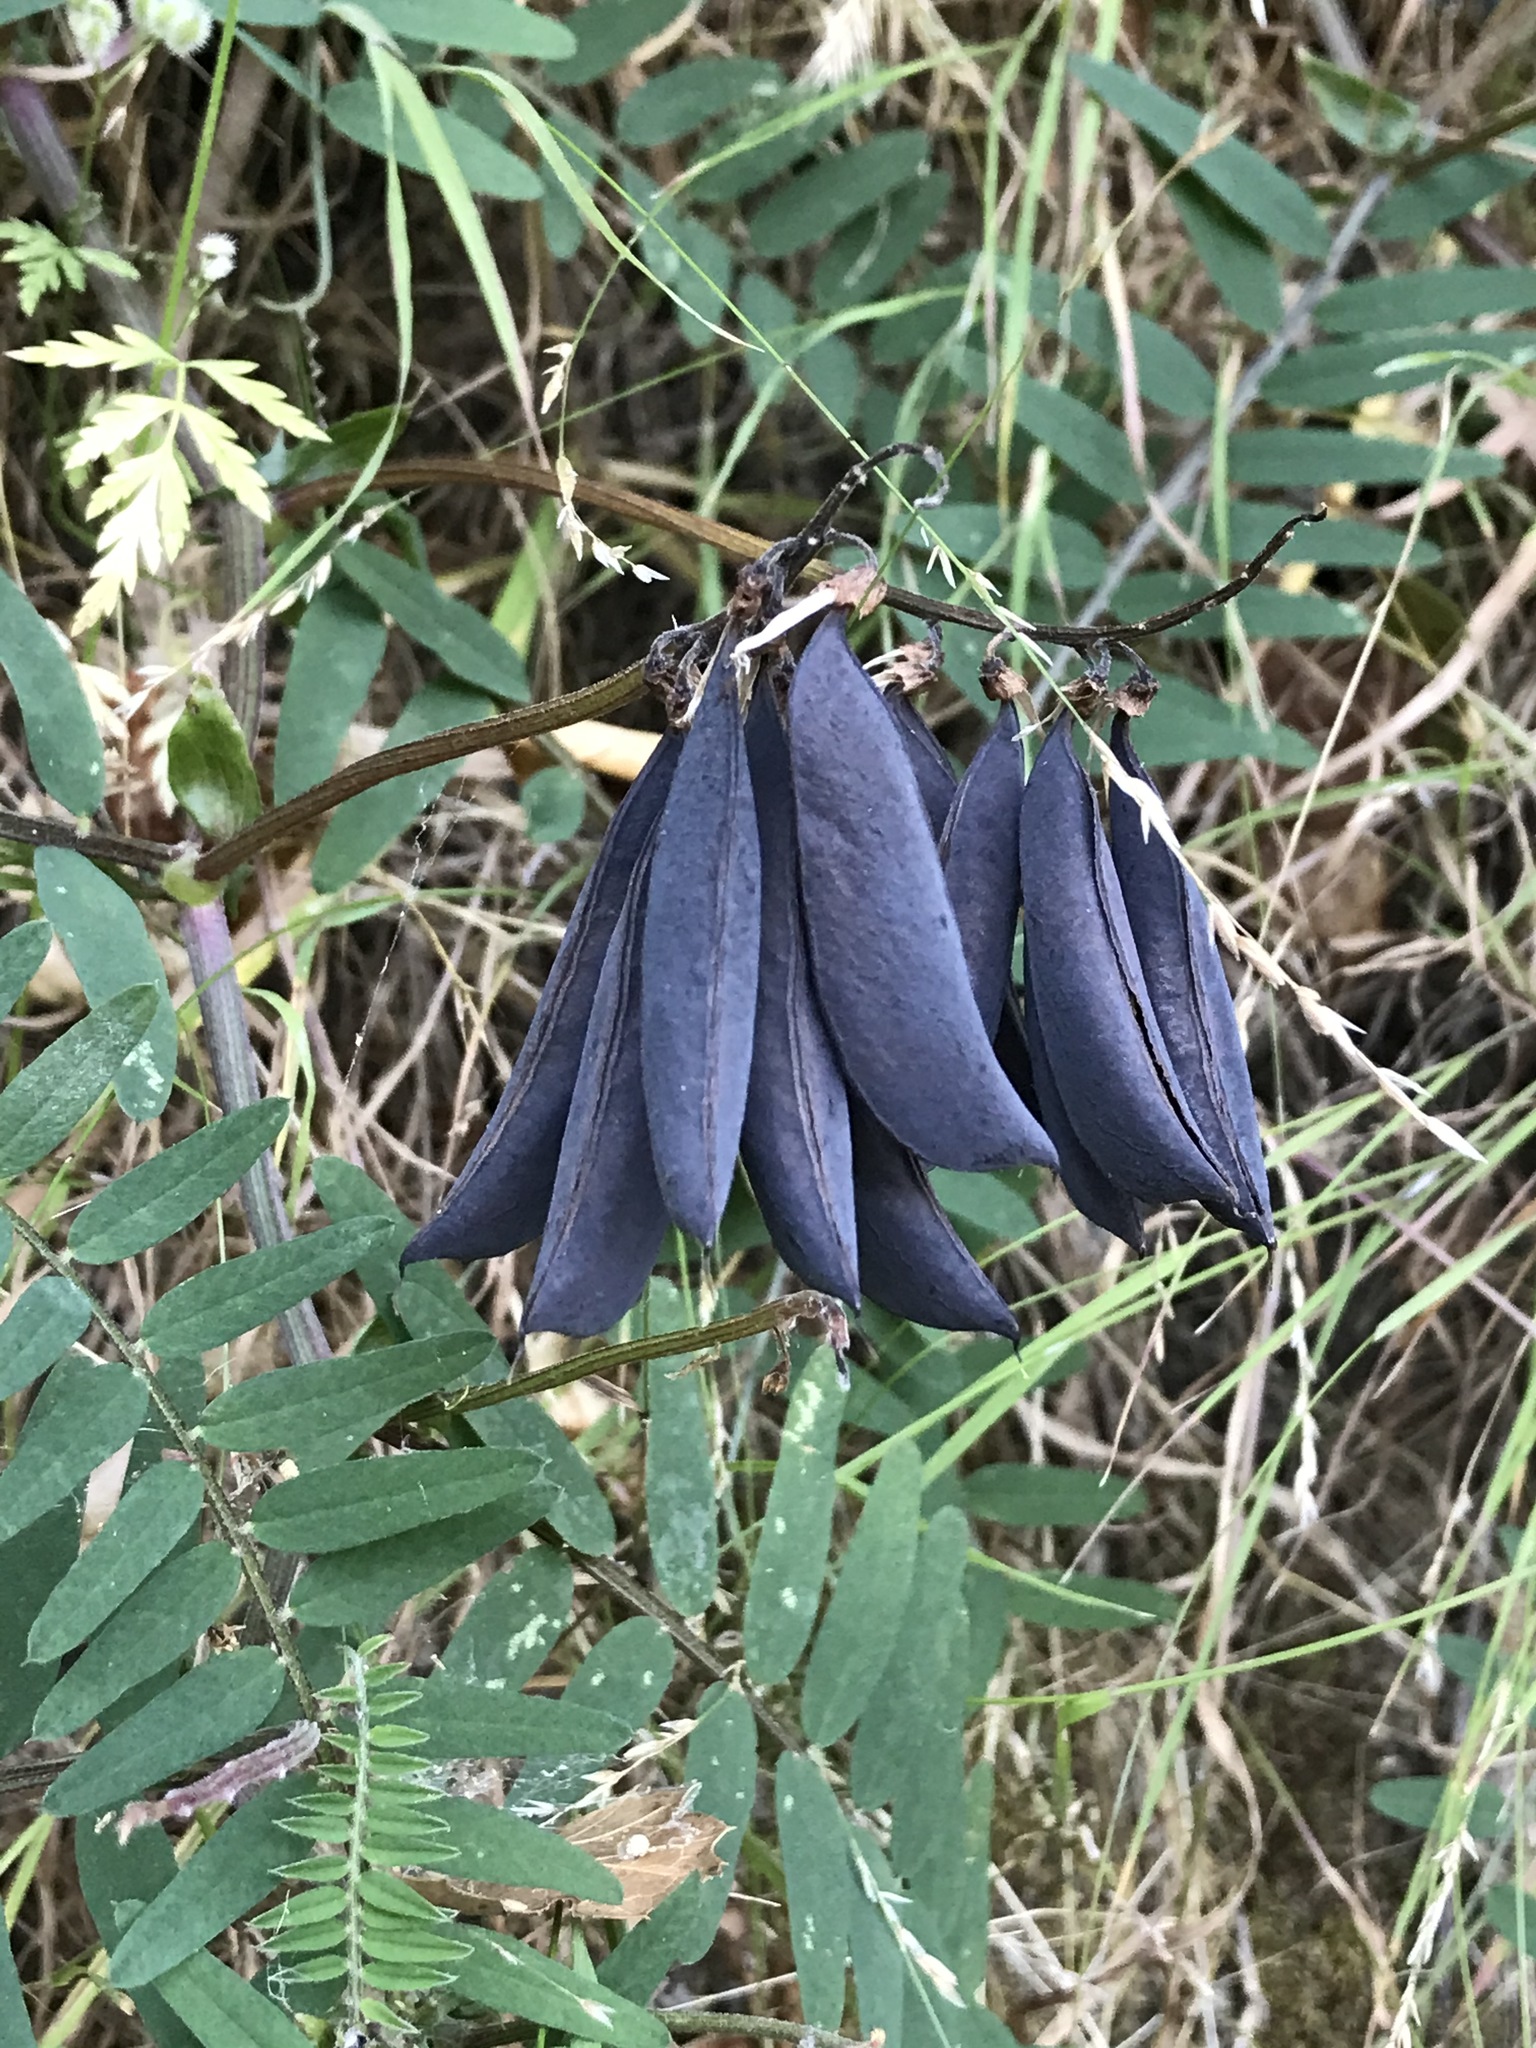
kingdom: Plantae
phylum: Tracheophyta
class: Magnoliopsida
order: Fabales
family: Fabaceae
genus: Vicia
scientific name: Vicia
